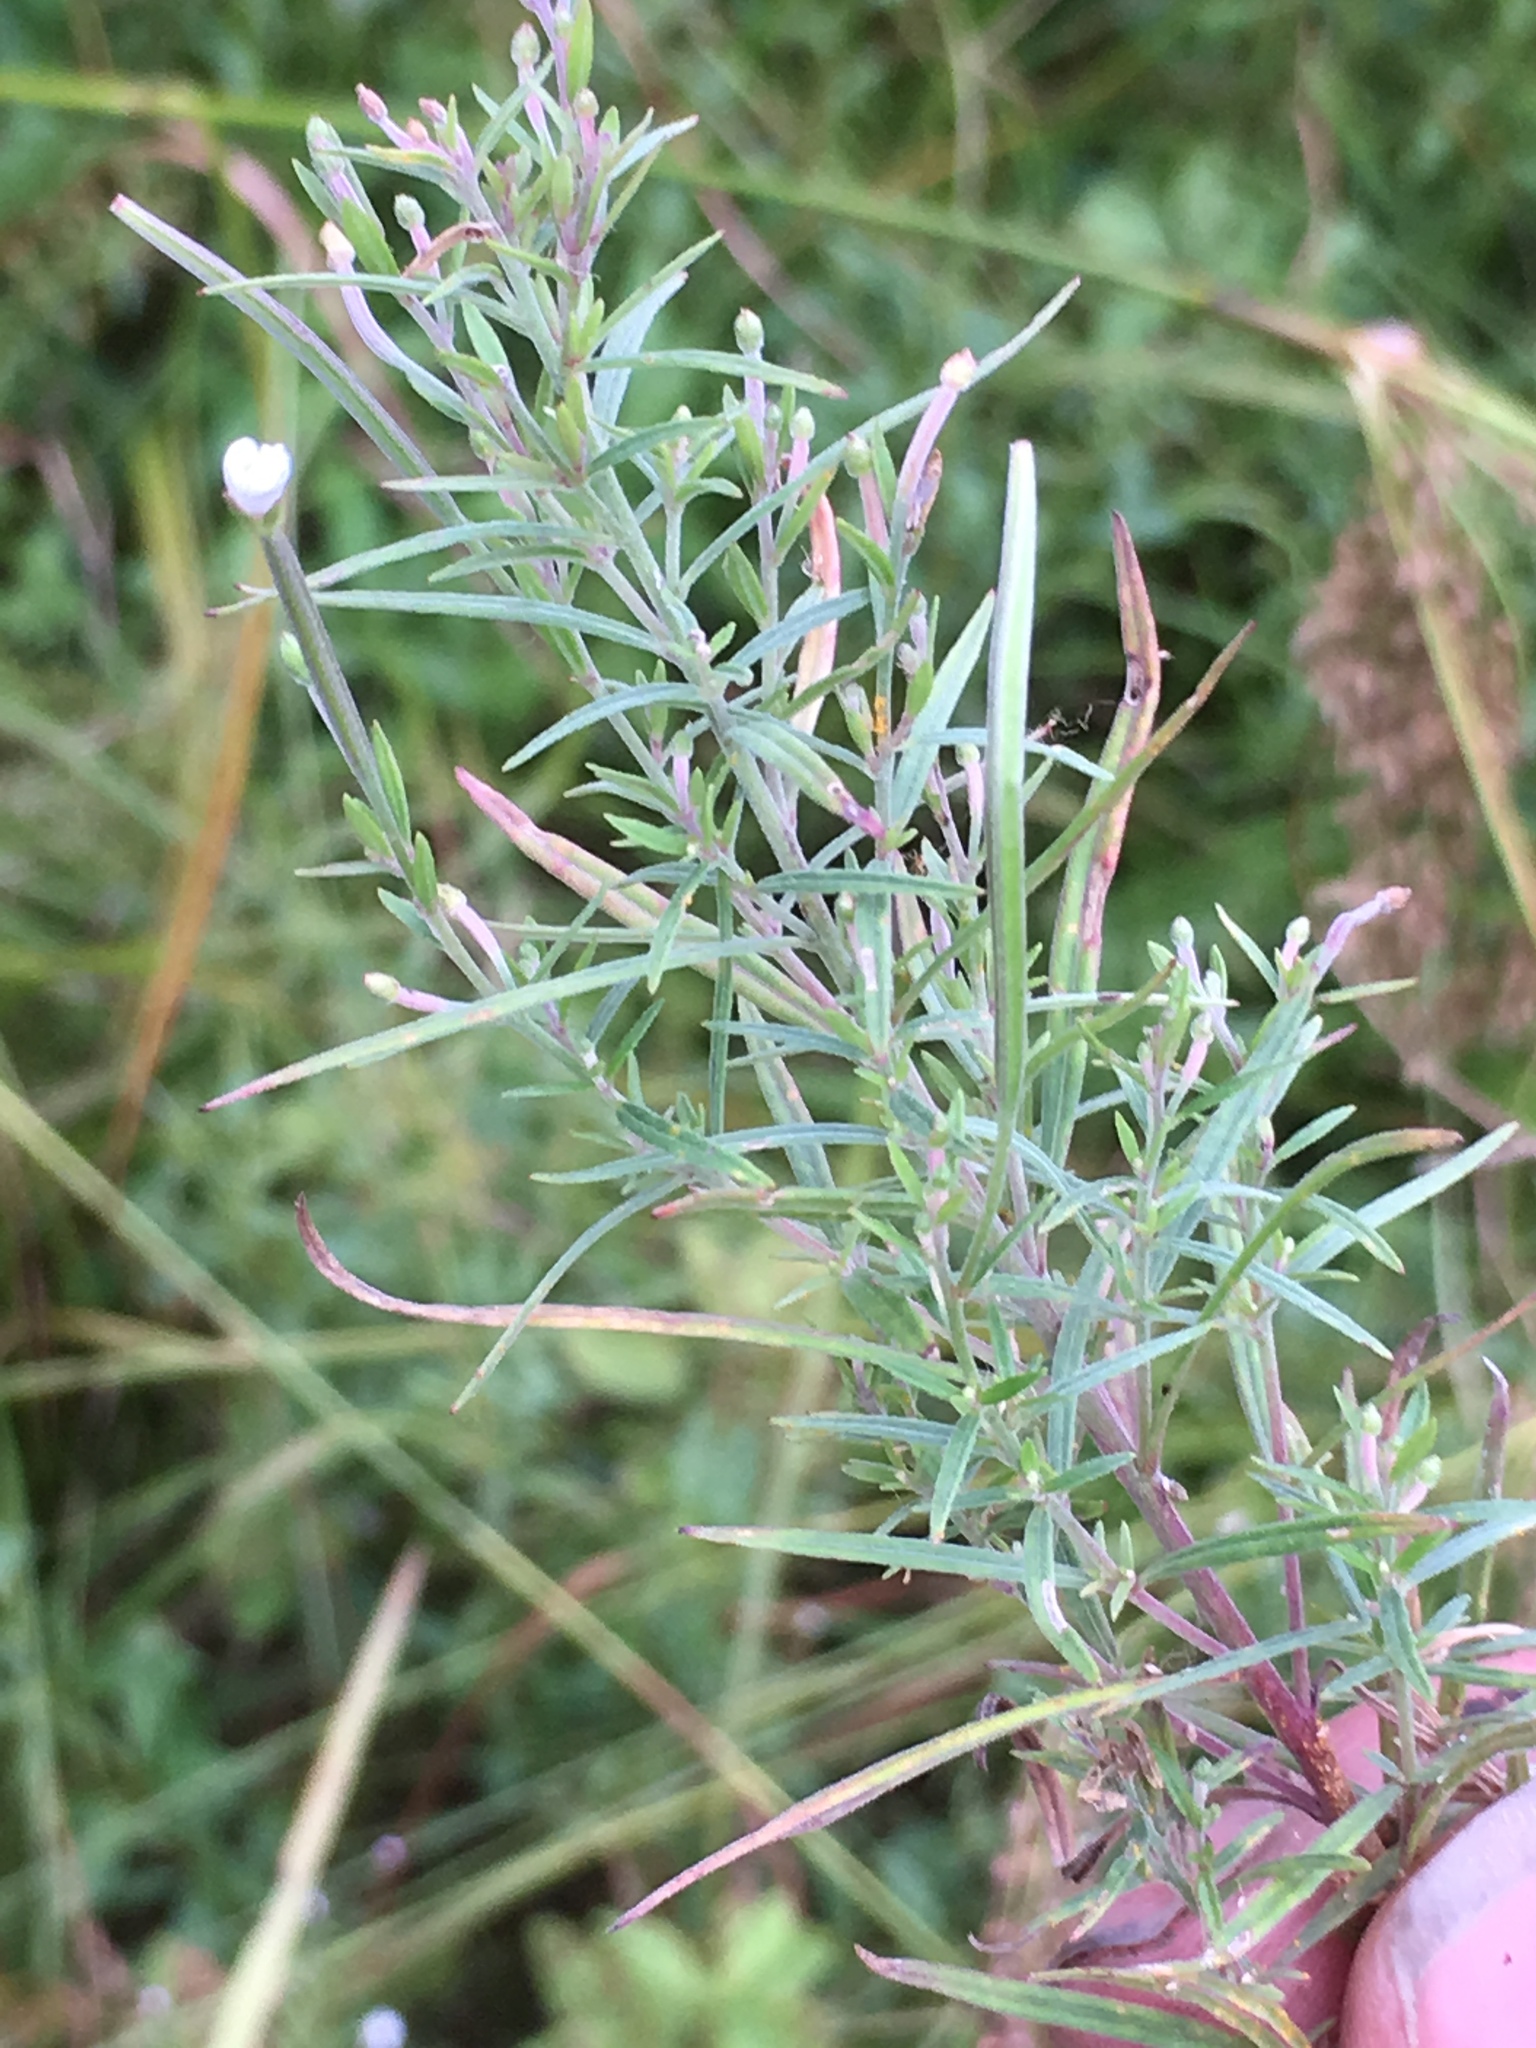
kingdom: Plantae
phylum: Tracheophyta
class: Magnoliopsida
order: Myrtales
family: Onagraceae
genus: Epilobium
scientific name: Epilobium leptophyllum
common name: Bog willowherb
